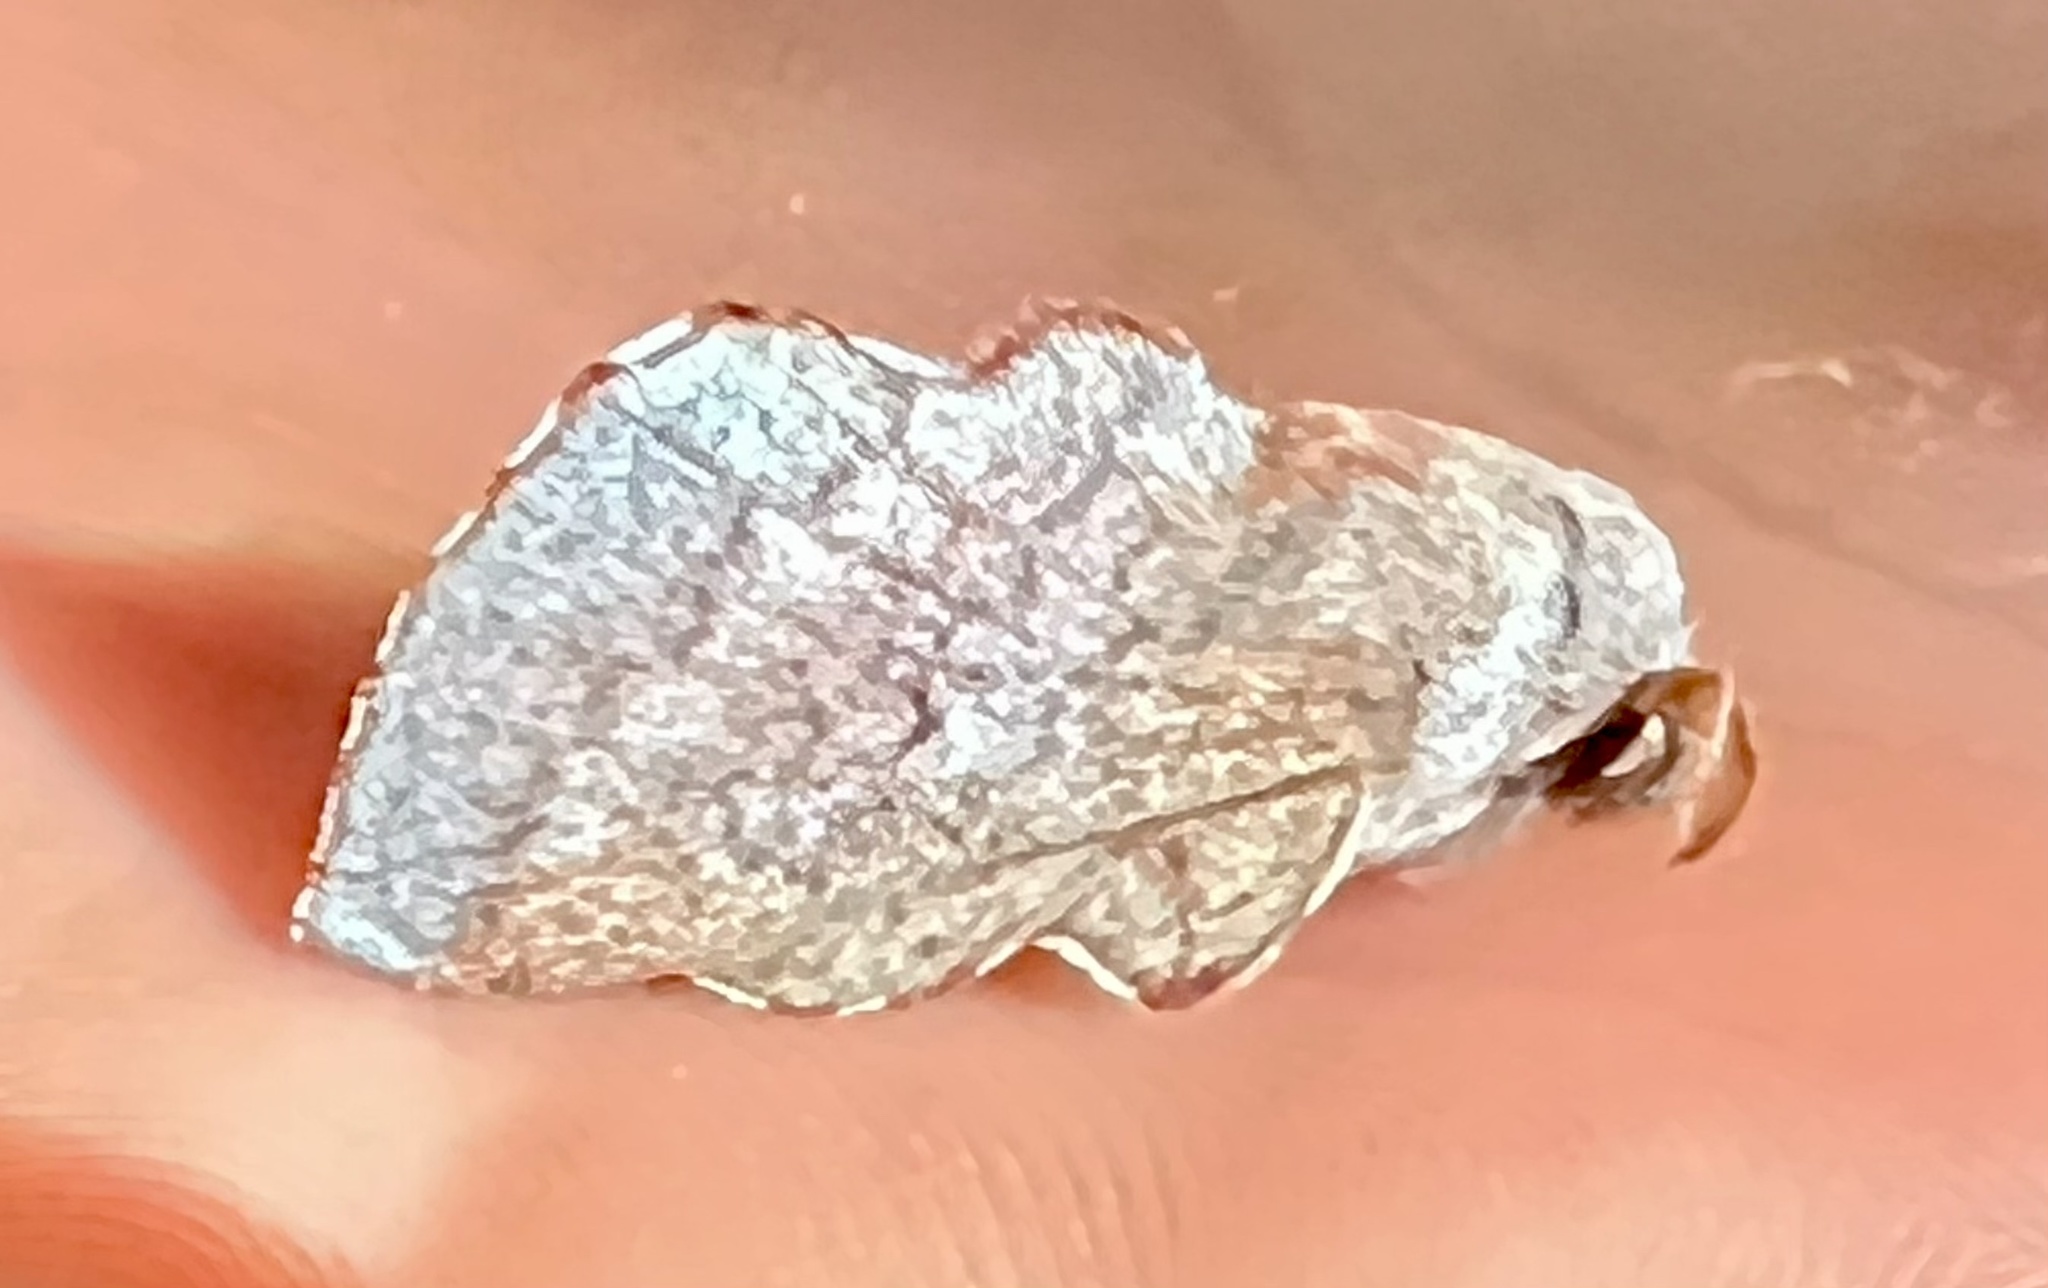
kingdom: Animalia
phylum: Arthropoda
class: Insecta
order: Lepidoptera
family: Lasiocampidae
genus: Phyllodesma
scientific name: Phyllodesma americana
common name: American lappet moth
